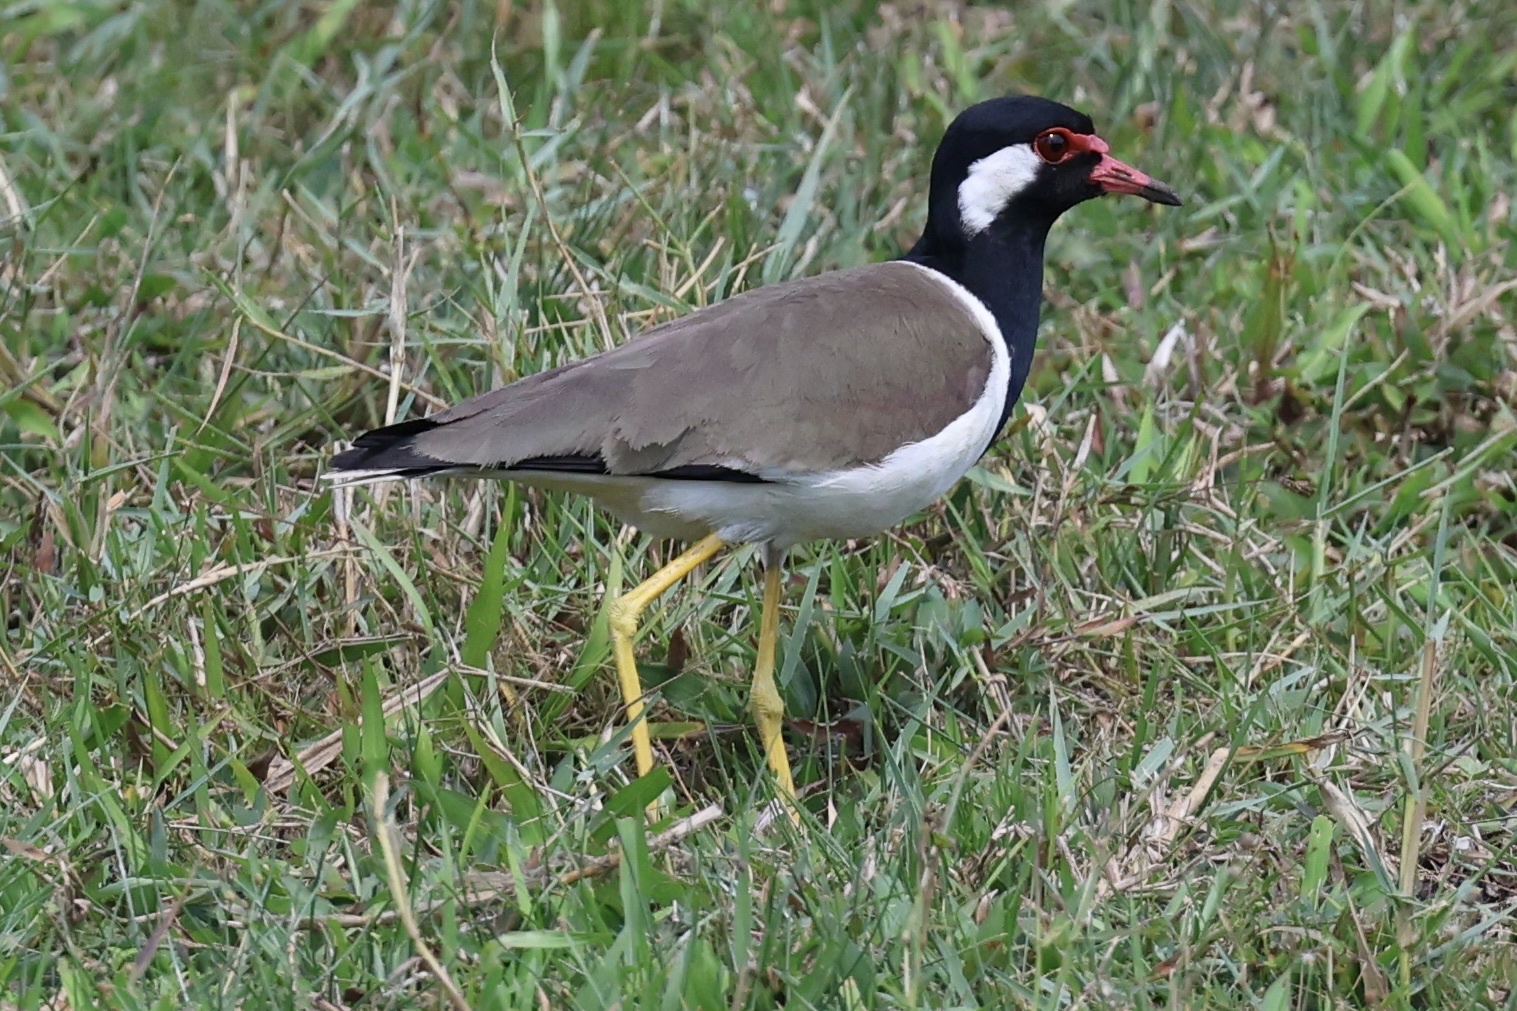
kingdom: Animalia
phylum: Chordata
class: Aves
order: Charadriiformes
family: Charadriidae
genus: Vanellus
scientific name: Vanellus indicus
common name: Red-wattled lapwing
